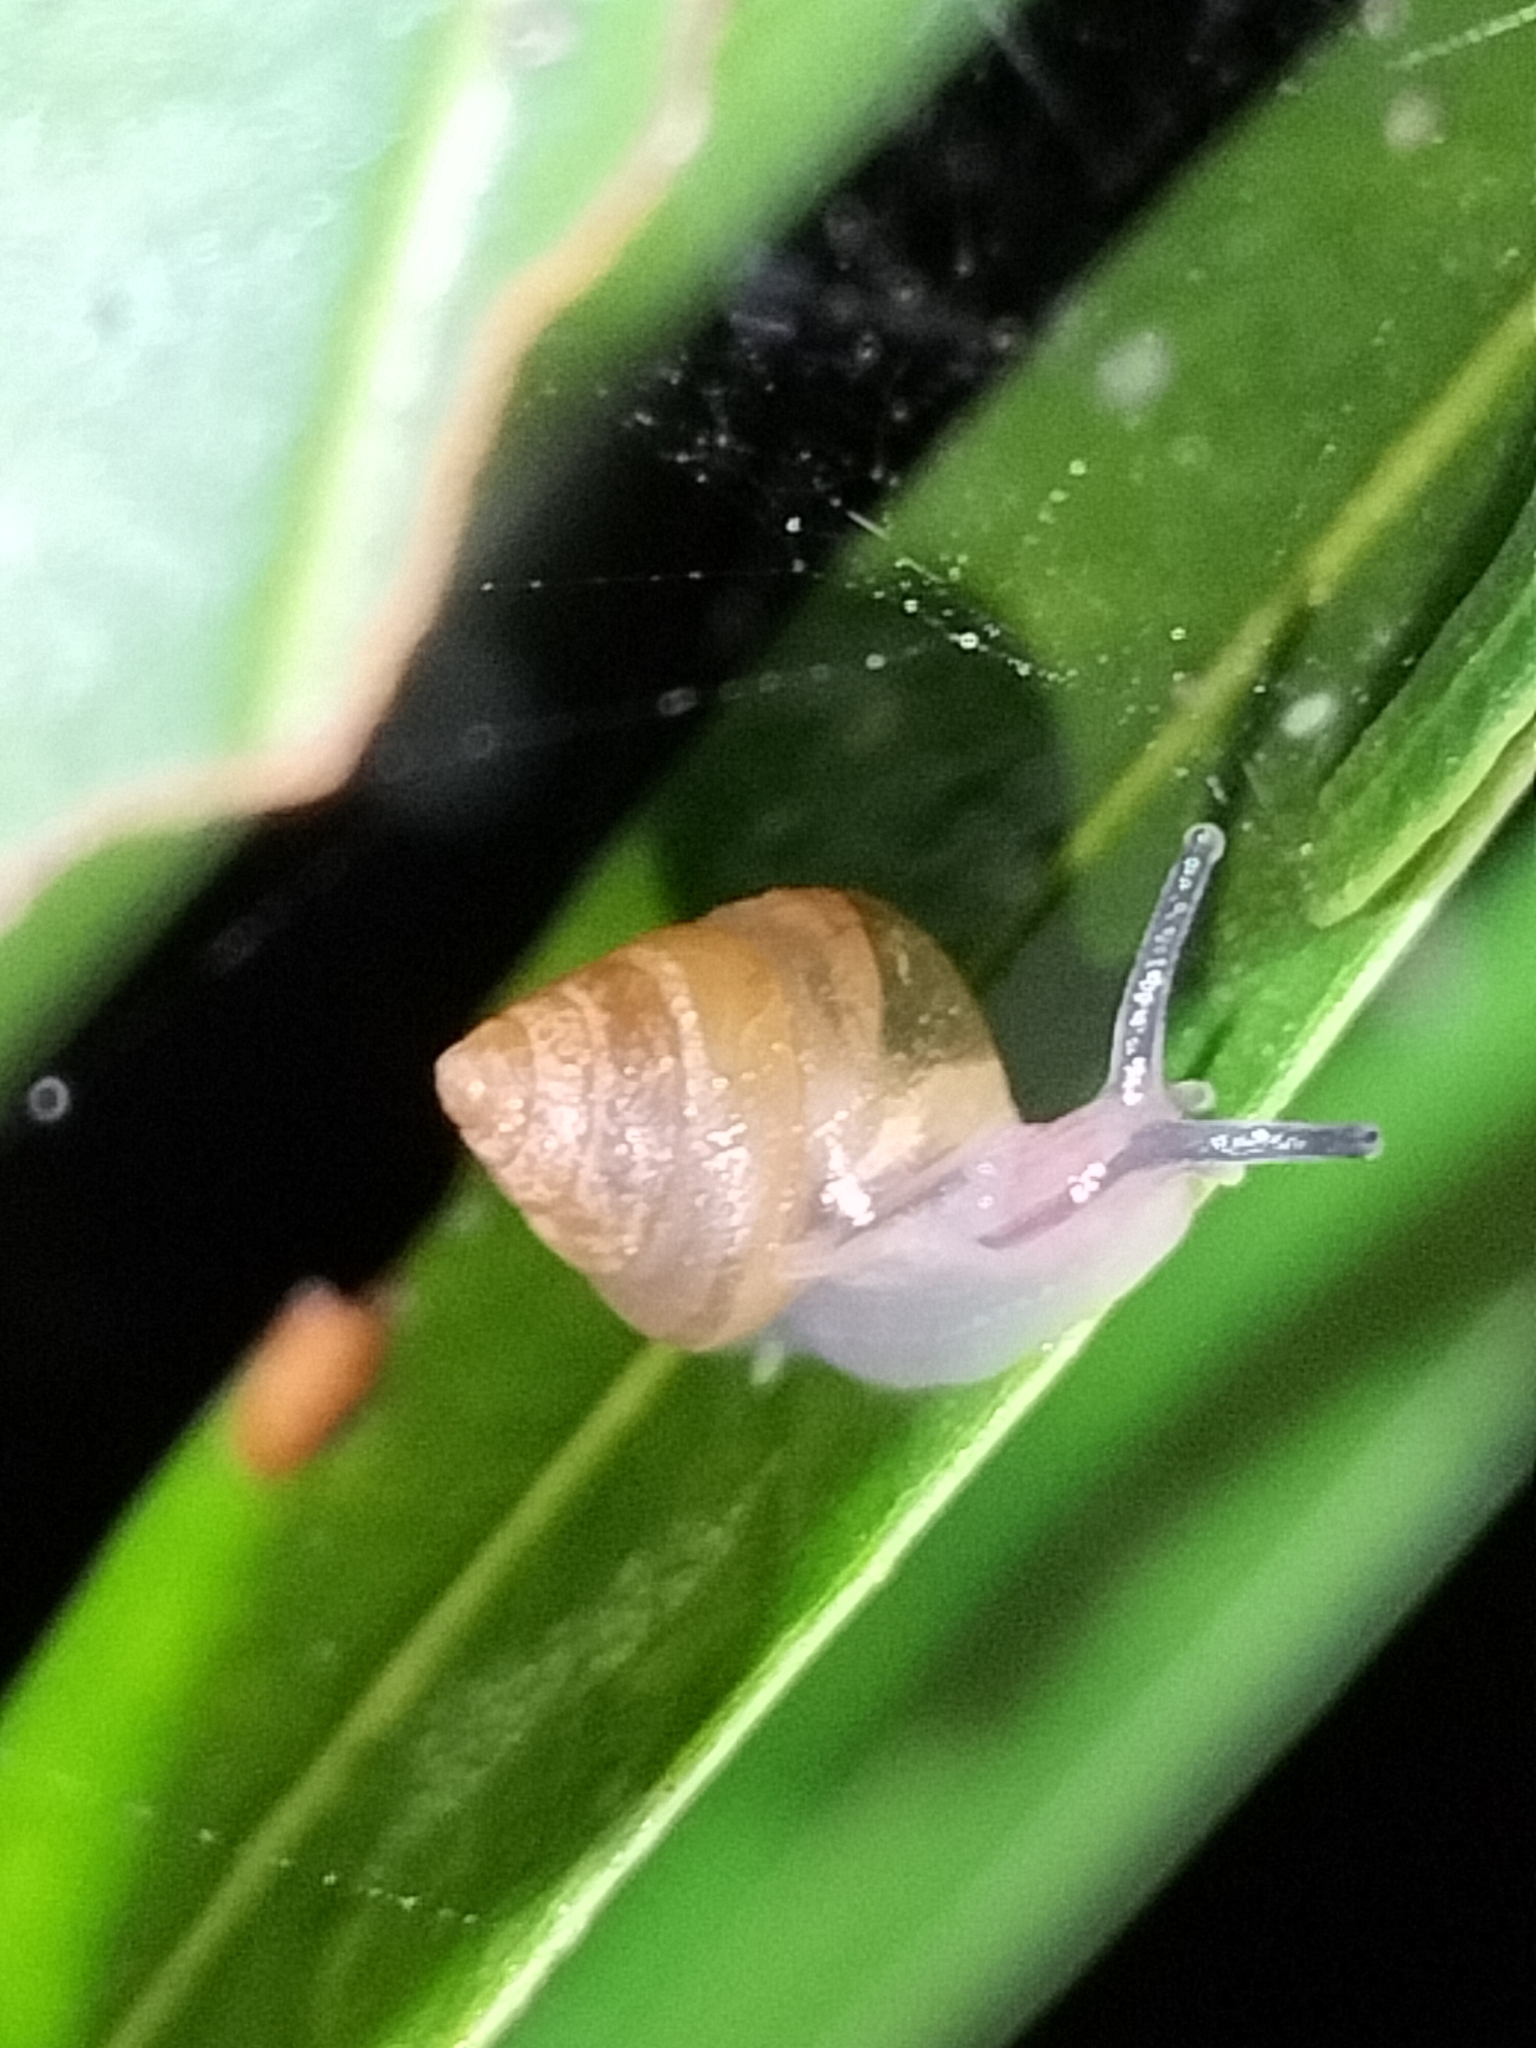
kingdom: Animalia
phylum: Mollusca
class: Gastropoda
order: Stylommatophora
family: Euconulidae
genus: Coneuplecta
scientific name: Coneuplecta calculosa
